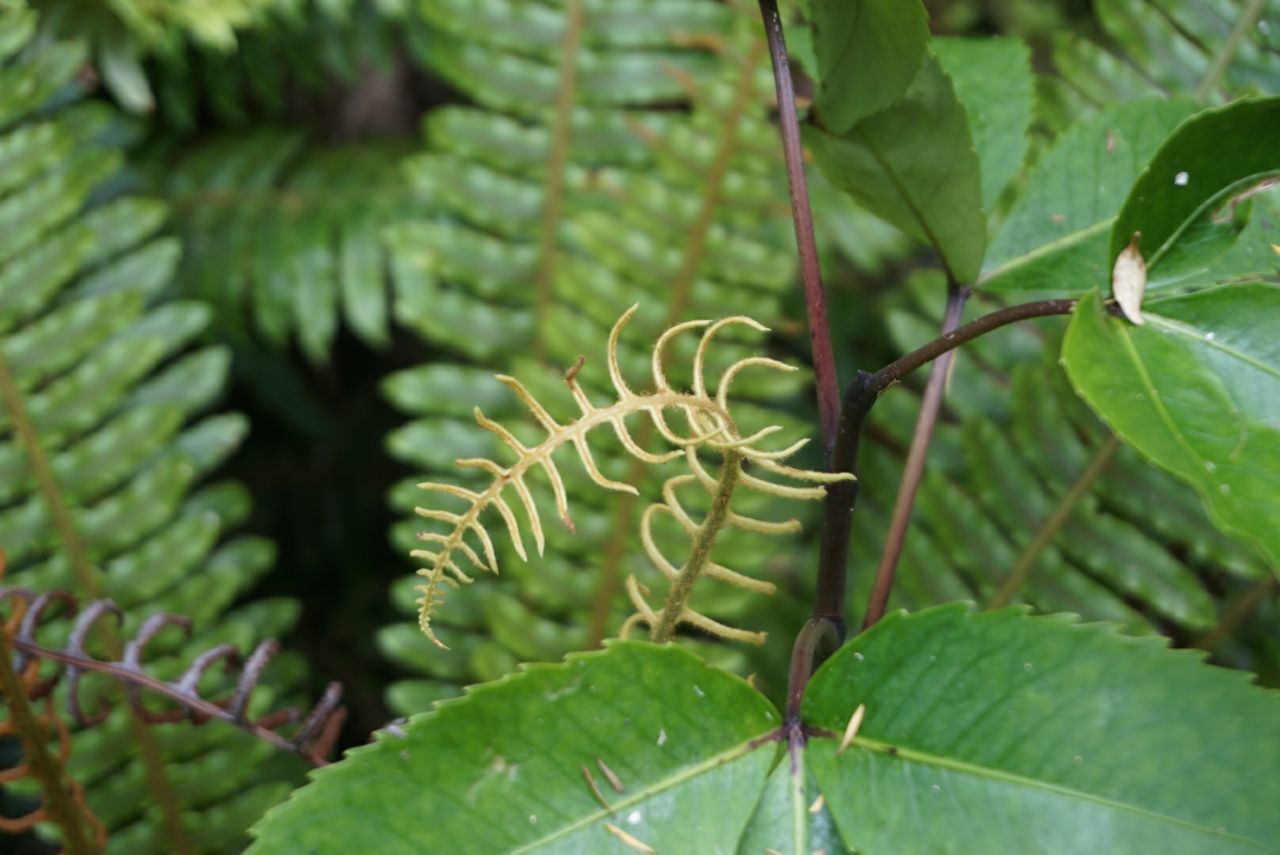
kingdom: Plantae
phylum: Tracheophyta
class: Polypodiopsida
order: Polypodiales
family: Blechnaceae
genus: Lomaria
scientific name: Lomaria discolor
